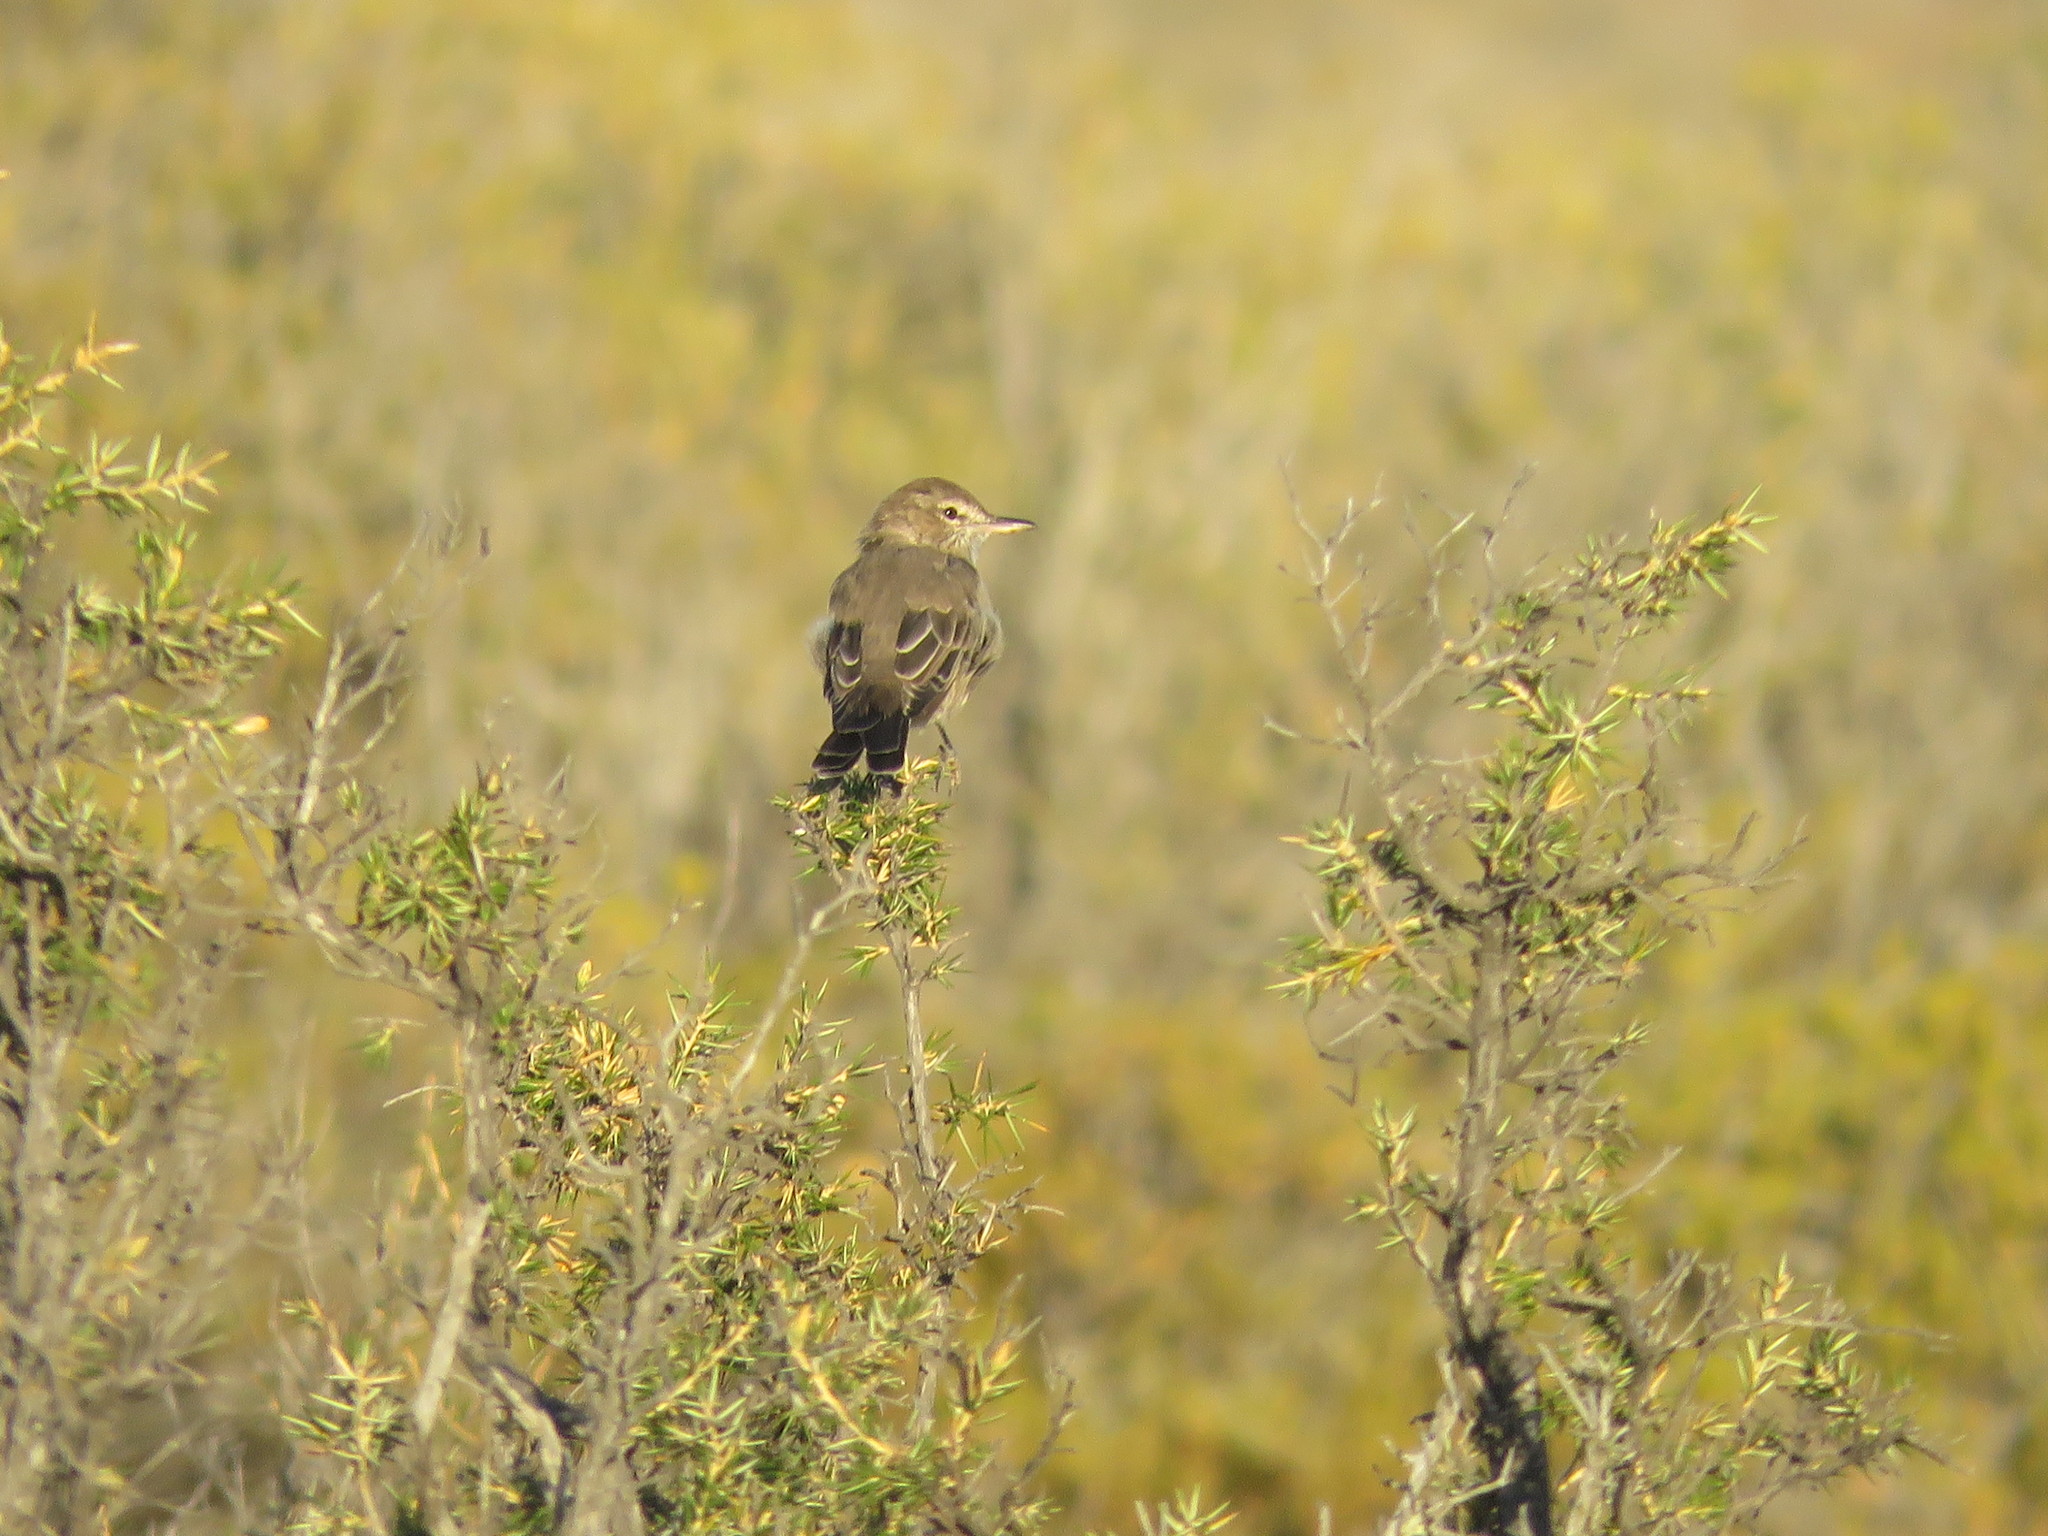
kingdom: Animalia
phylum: Chordata
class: Aves
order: Passeriformes
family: Tyrannidae
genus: Agriornis
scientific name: Agriornis micropterus
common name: Grey-bellied shrike-tyrant
